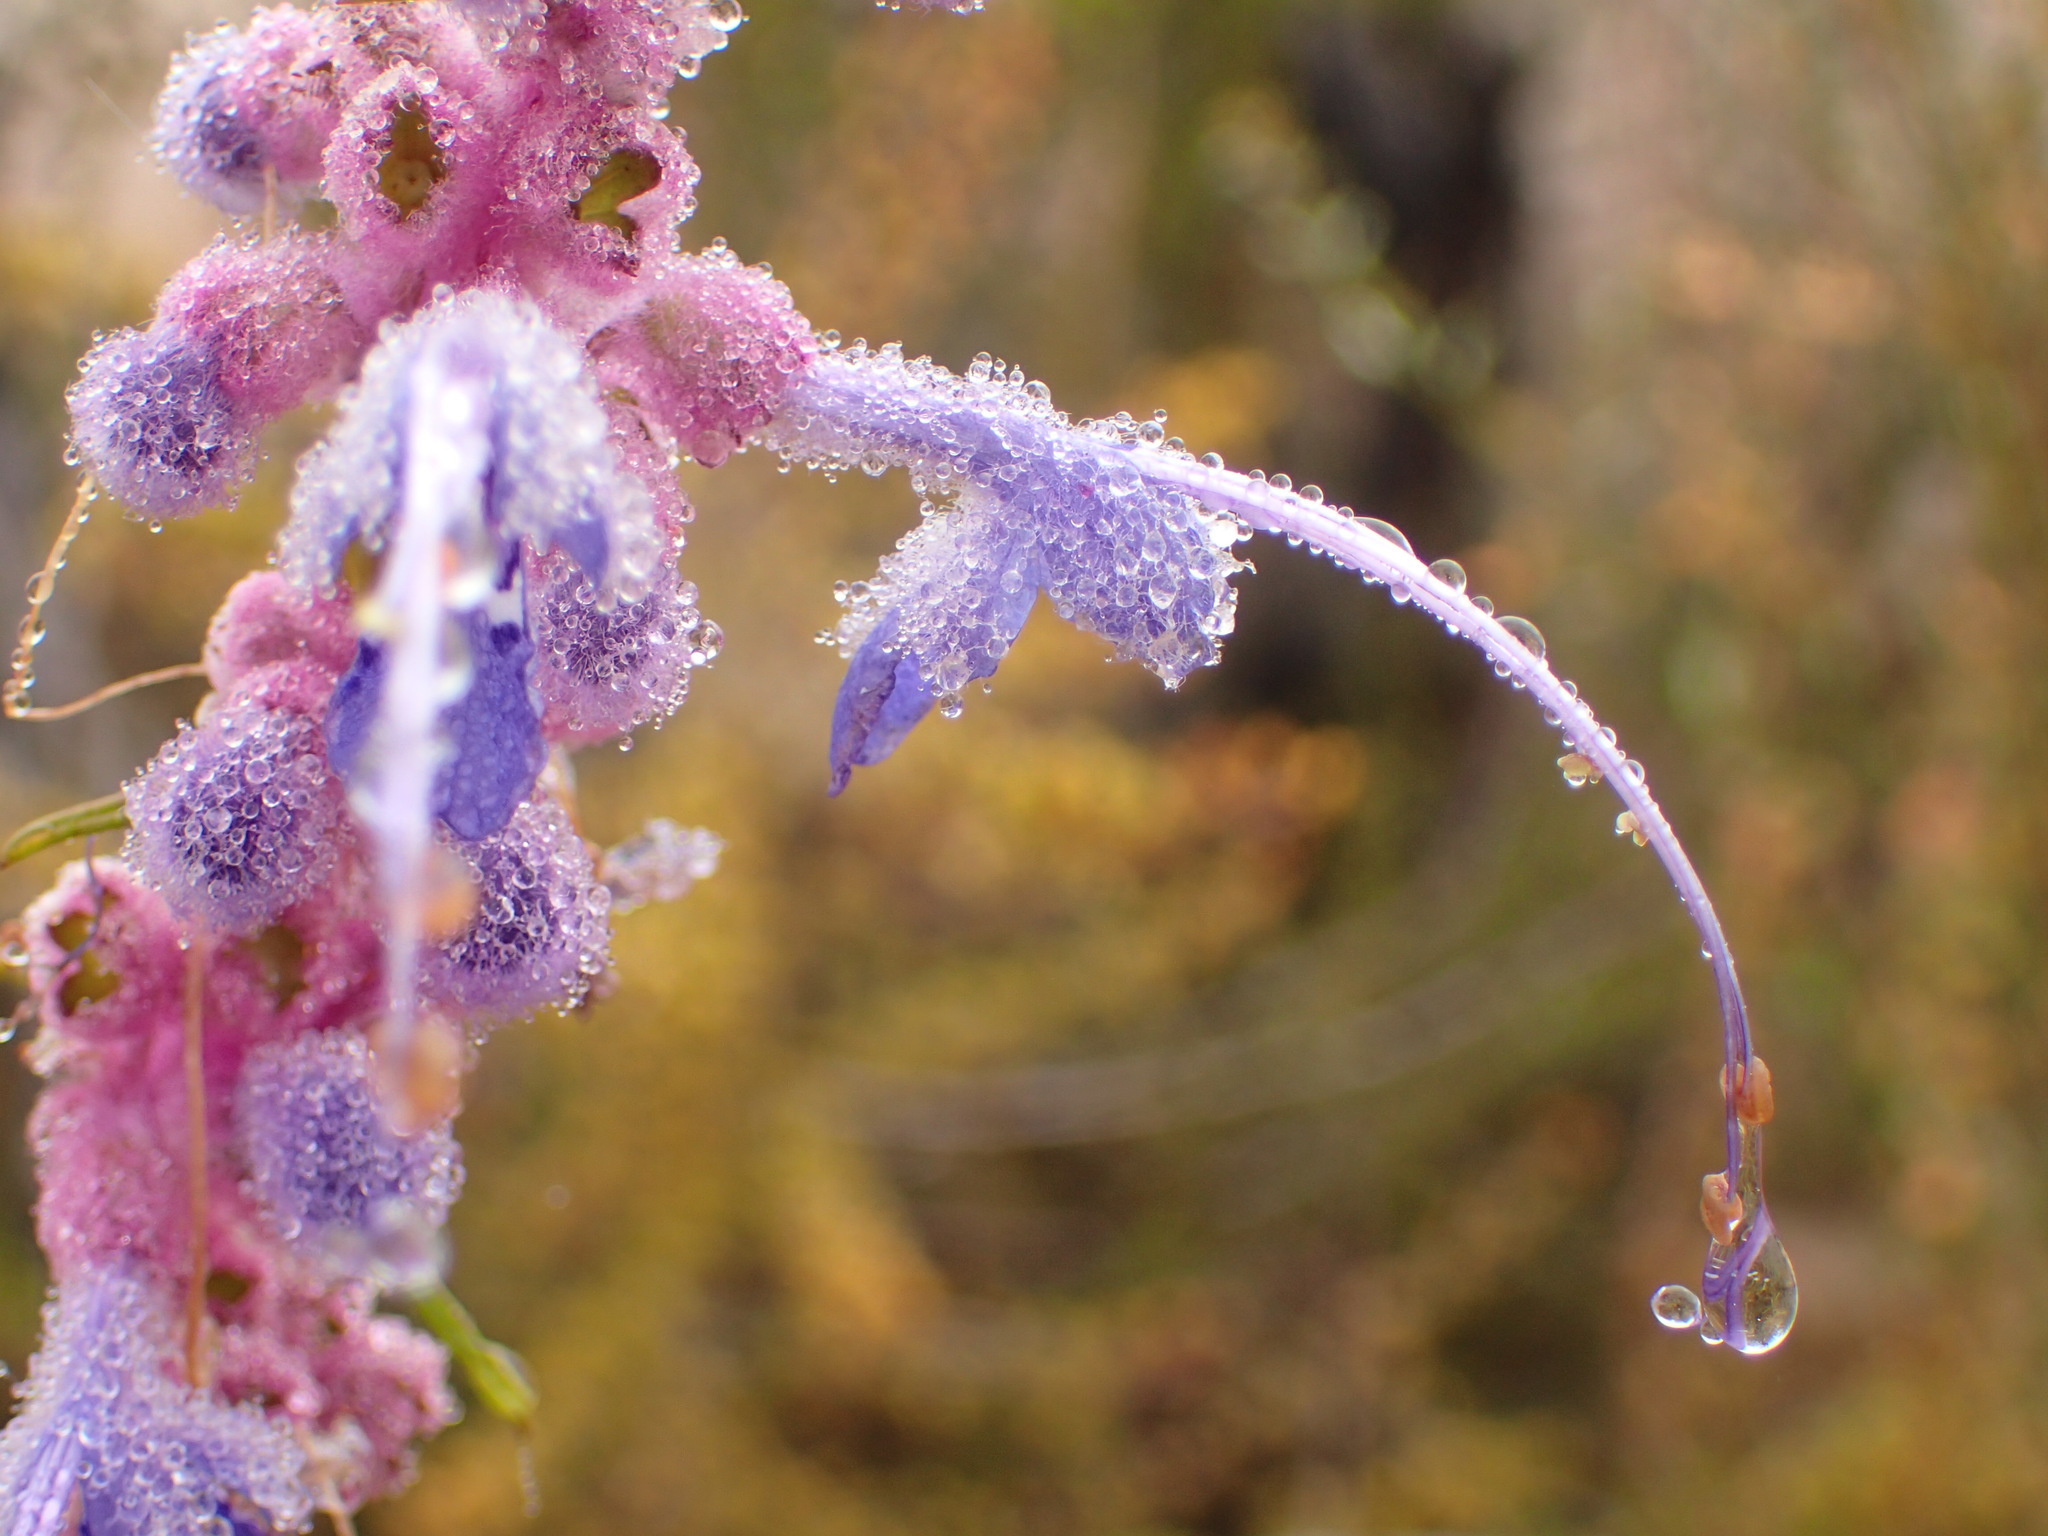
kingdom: Plantae
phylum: Tracheophyta
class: Magnoliopsida
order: Lamiales
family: Lamiaceae
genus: Trichostema
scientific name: Trichostema lanatum
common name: Woolly bluecurls
